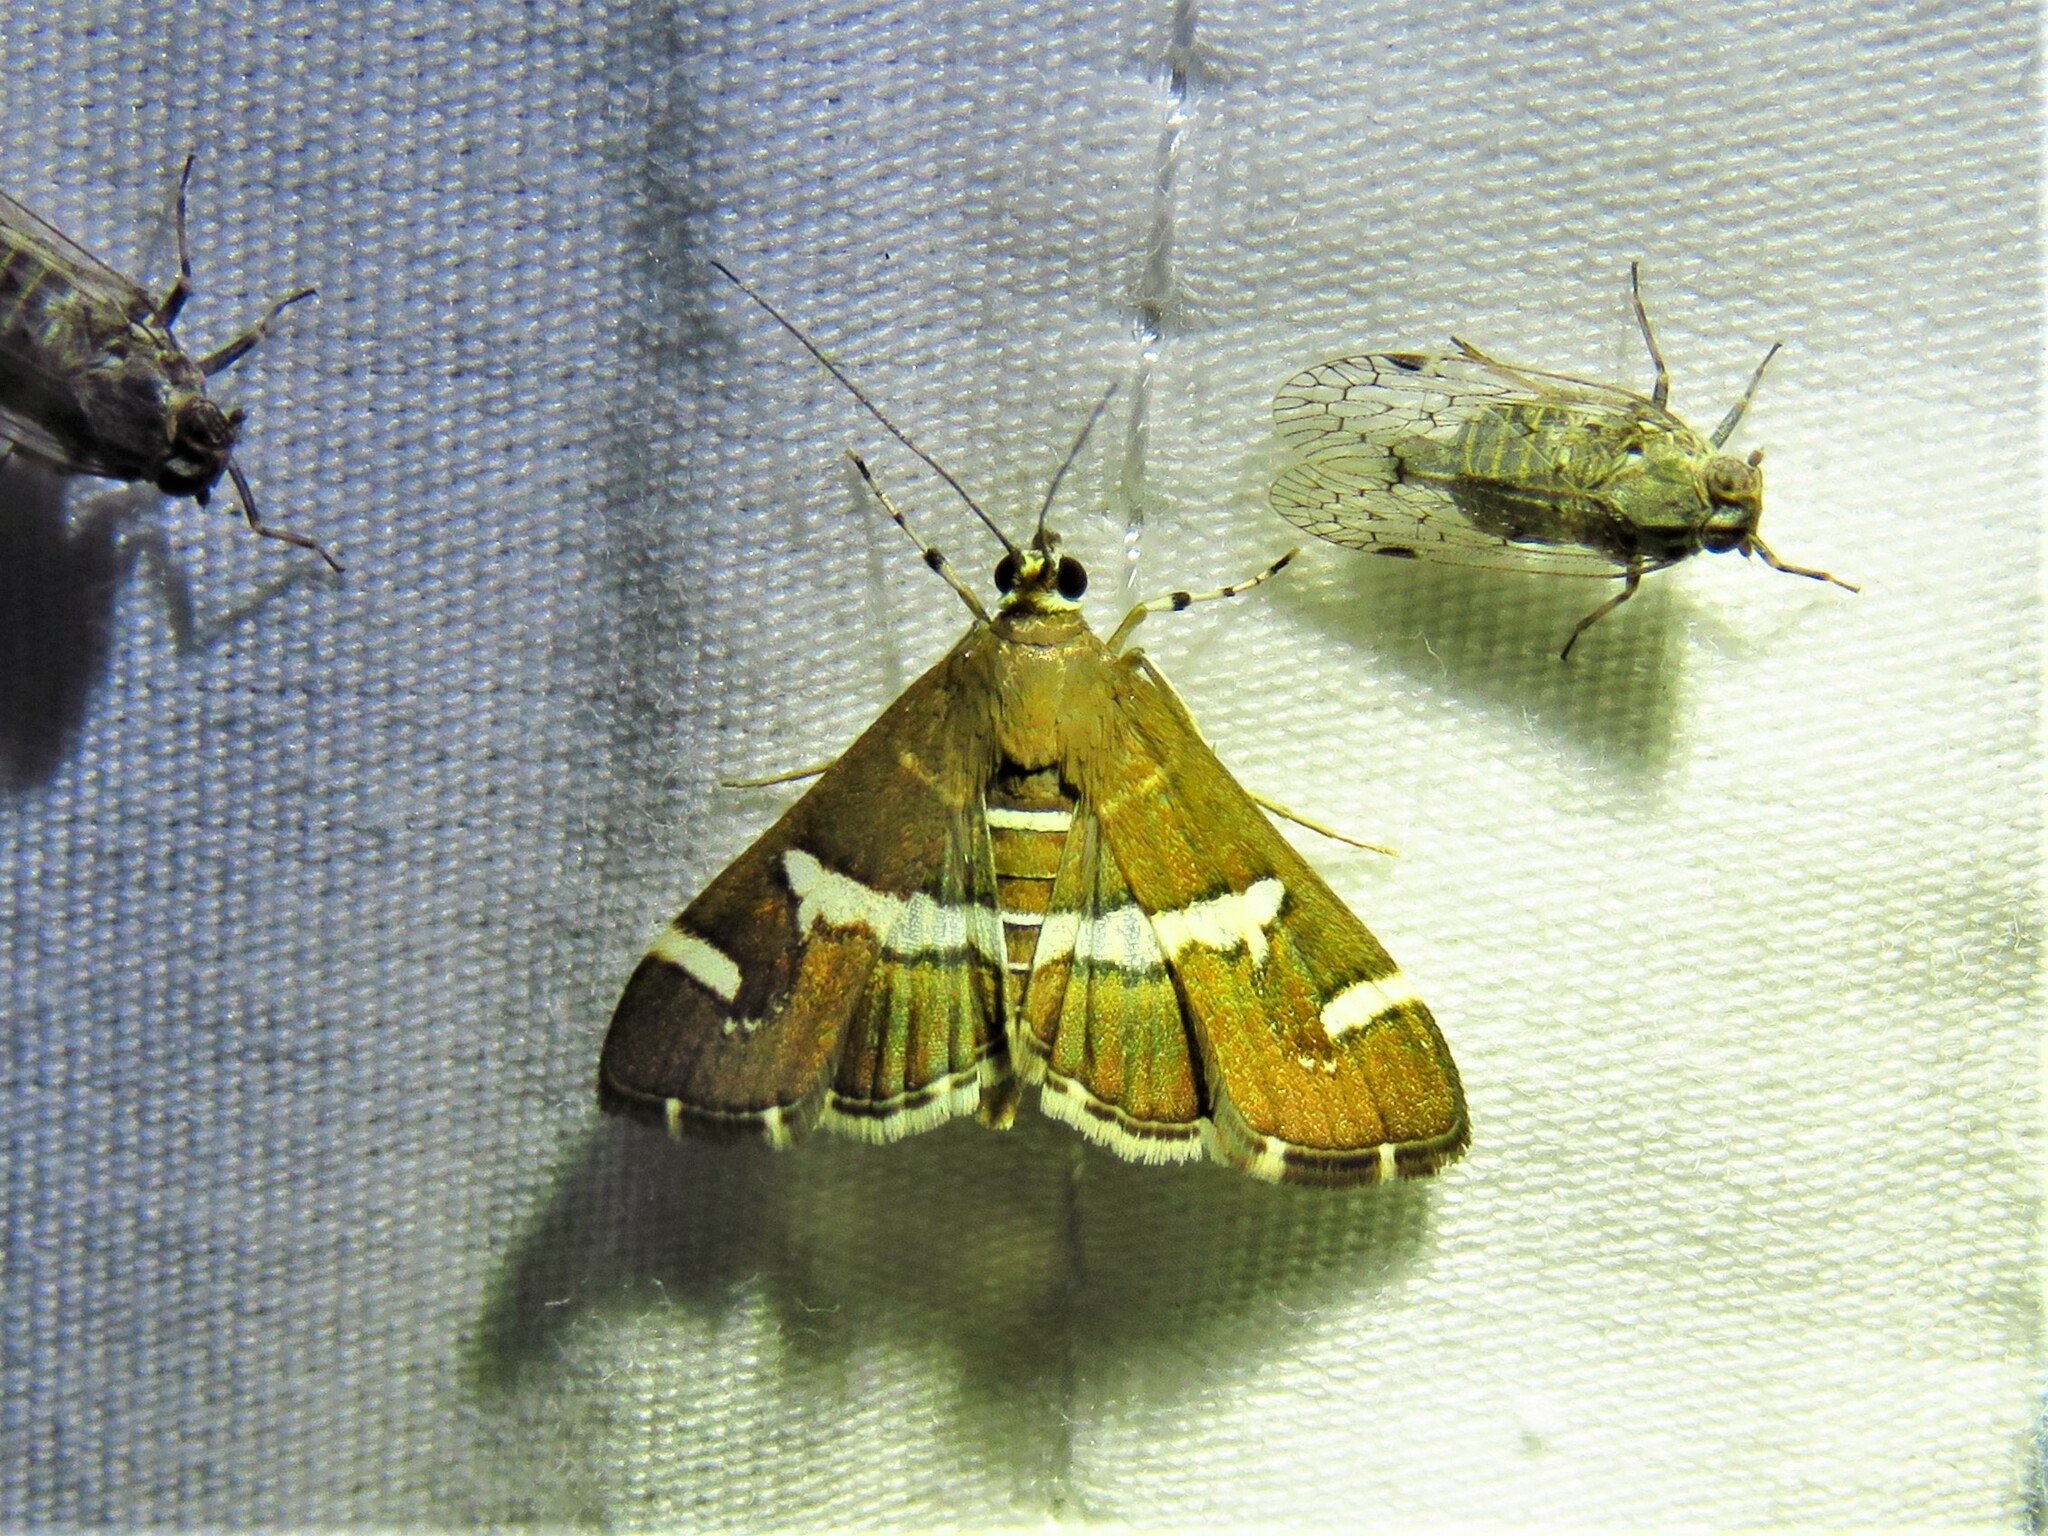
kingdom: Animalia
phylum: Arthropoda
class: Insecta
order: Lepidoptera
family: Crambidae
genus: Spoladea
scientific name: Spoladea recurvalis
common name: Beet webworm moth
